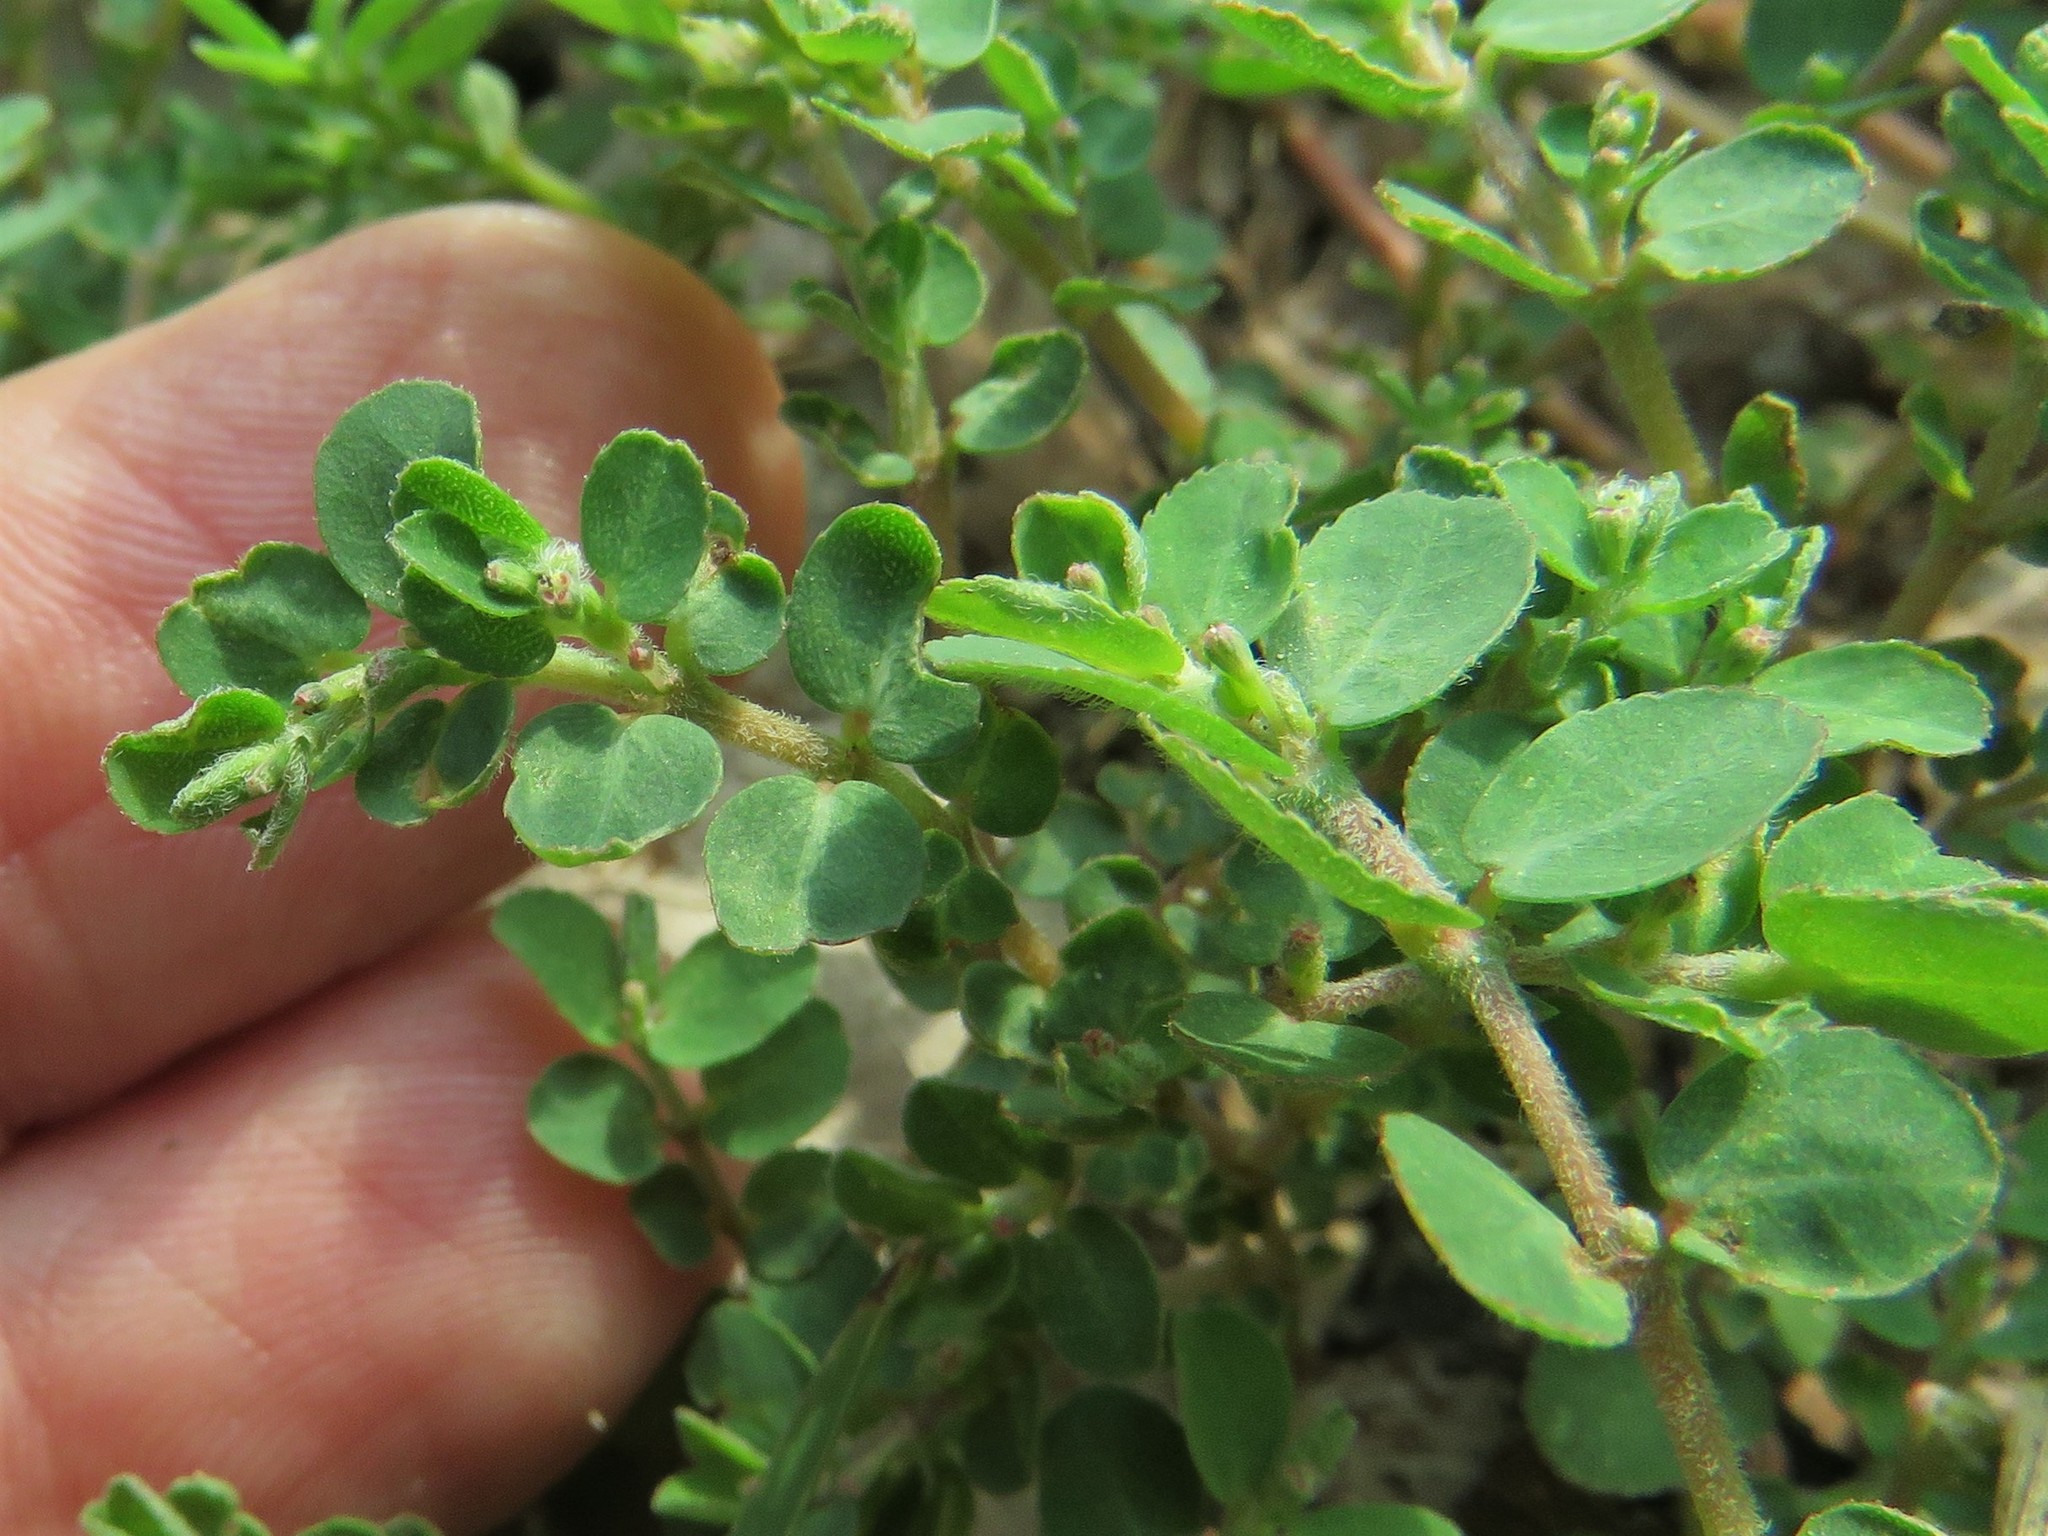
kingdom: Plantae
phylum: Tracheophyta
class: Magnoliopsida
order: Malpighiales
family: Euphorbiaceae
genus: Euphorbia
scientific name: Euphorbia prostrata
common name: Prostrate sandmat
